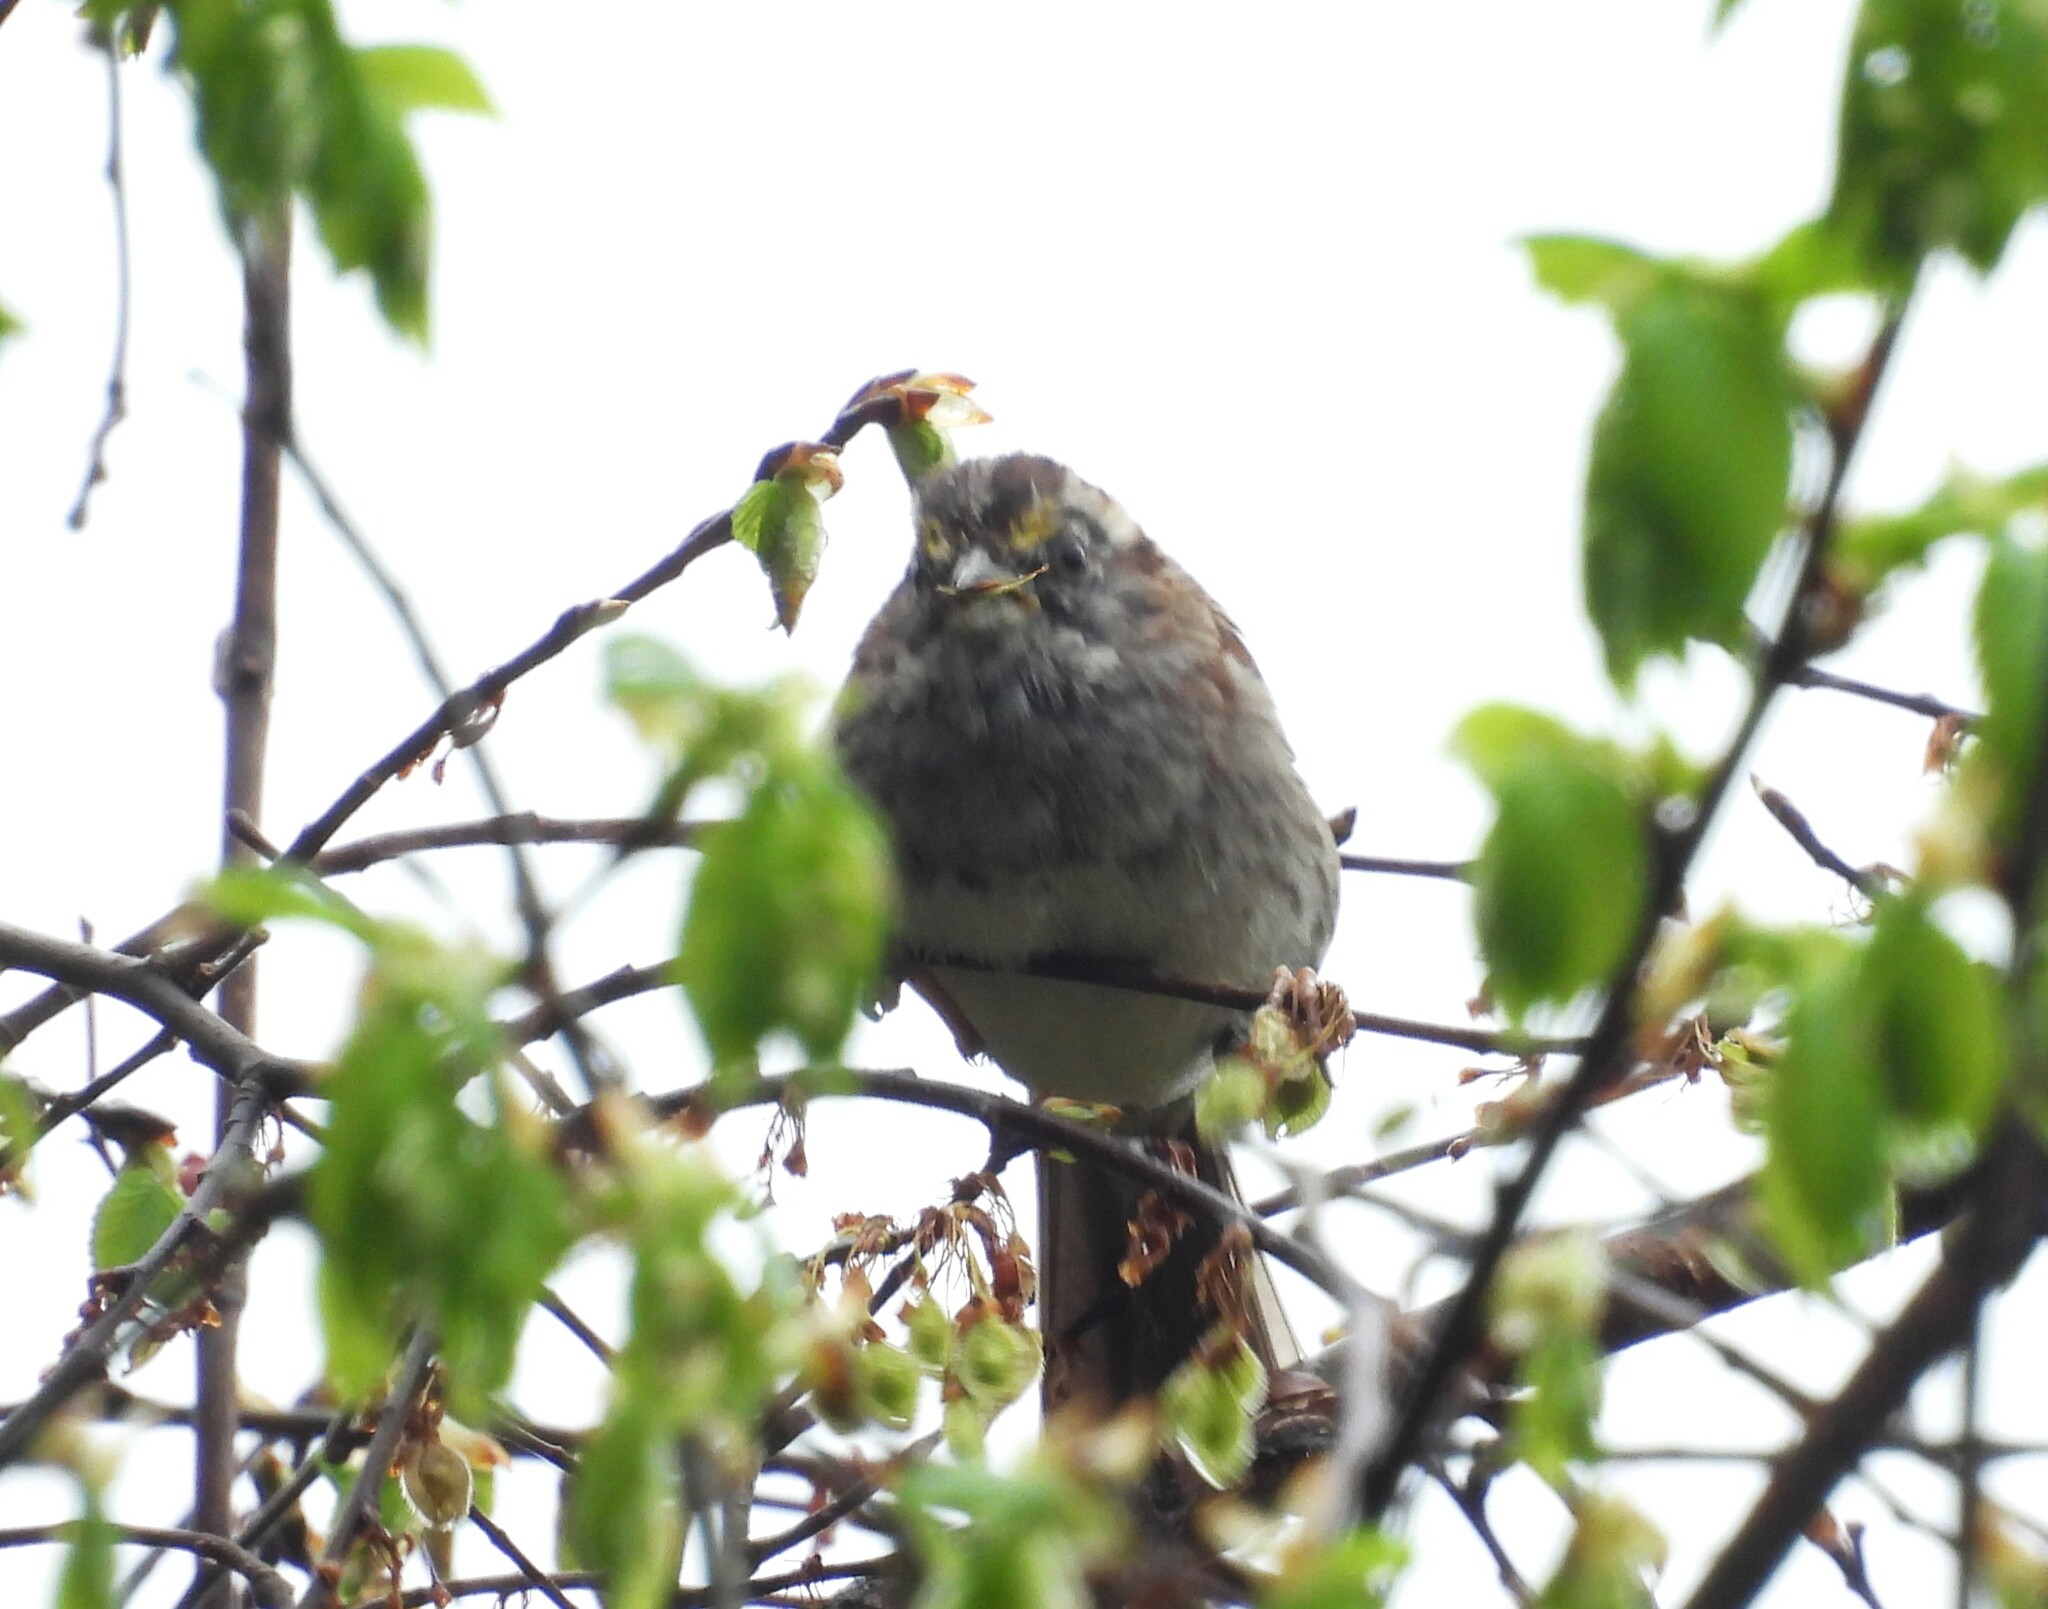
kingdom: Animalia
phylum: Chordata
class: Aves
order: Passeriformes
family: Passerellidae
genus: Zonotrichia
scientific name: Zonotrichia albicollis
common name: White-throated sparrow
